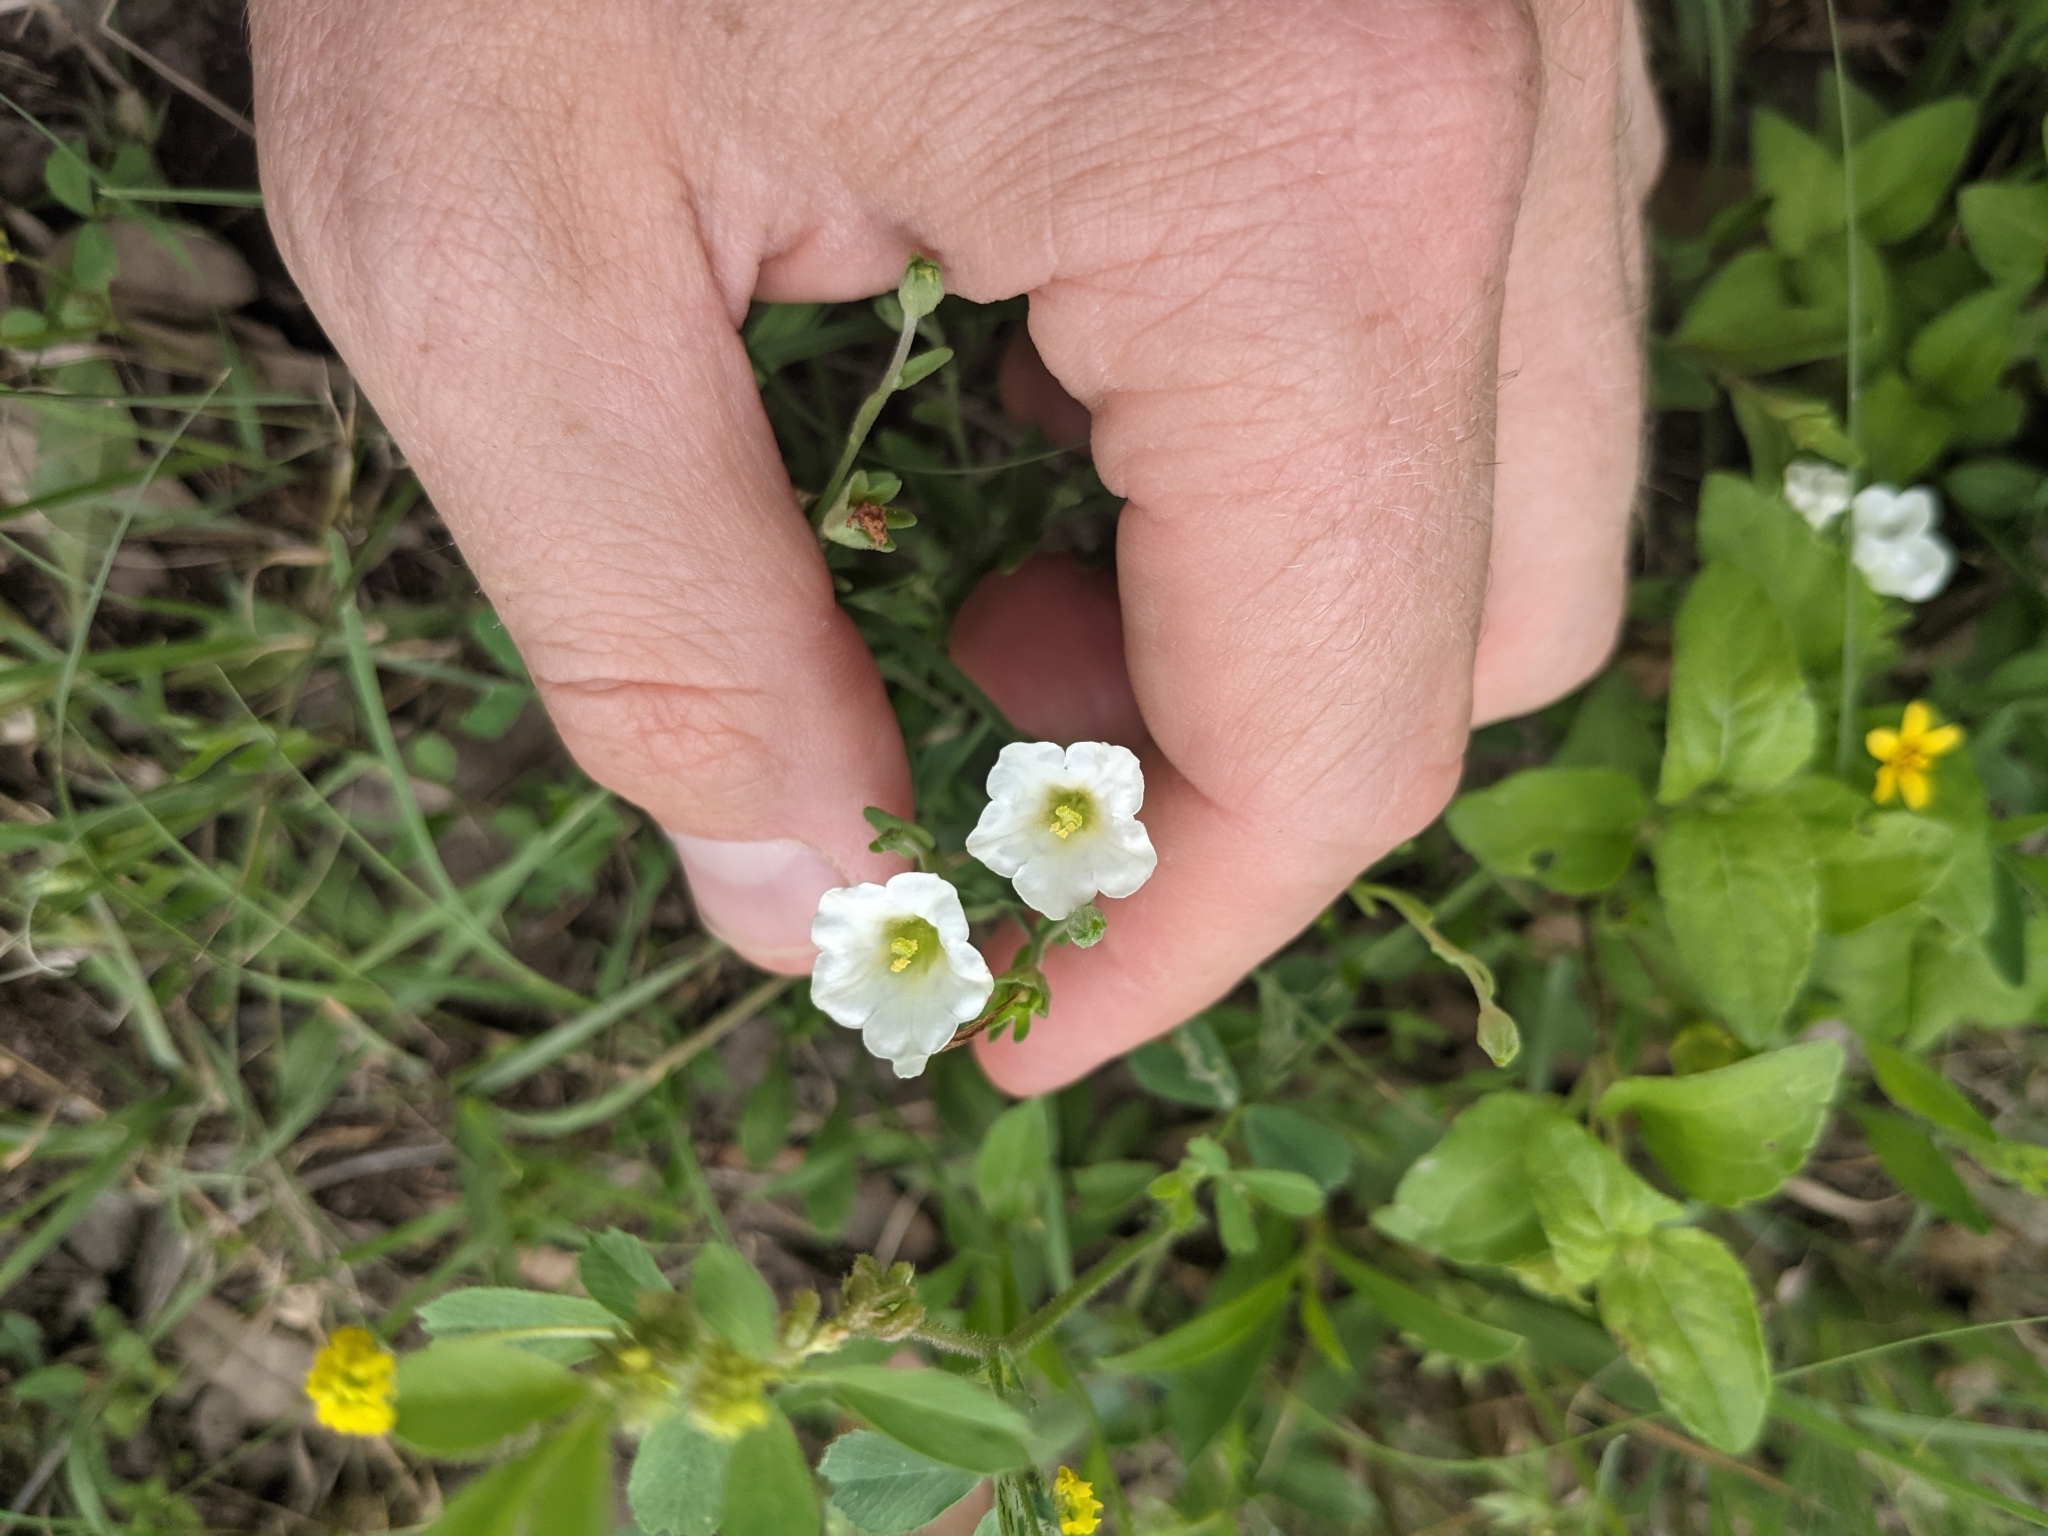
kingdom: Plantae
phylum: Tracheophyta
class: Magnoliopsida
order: Solanales
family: Solanaceae
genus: Salpiglossis
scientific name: Salpiglossis erecta
